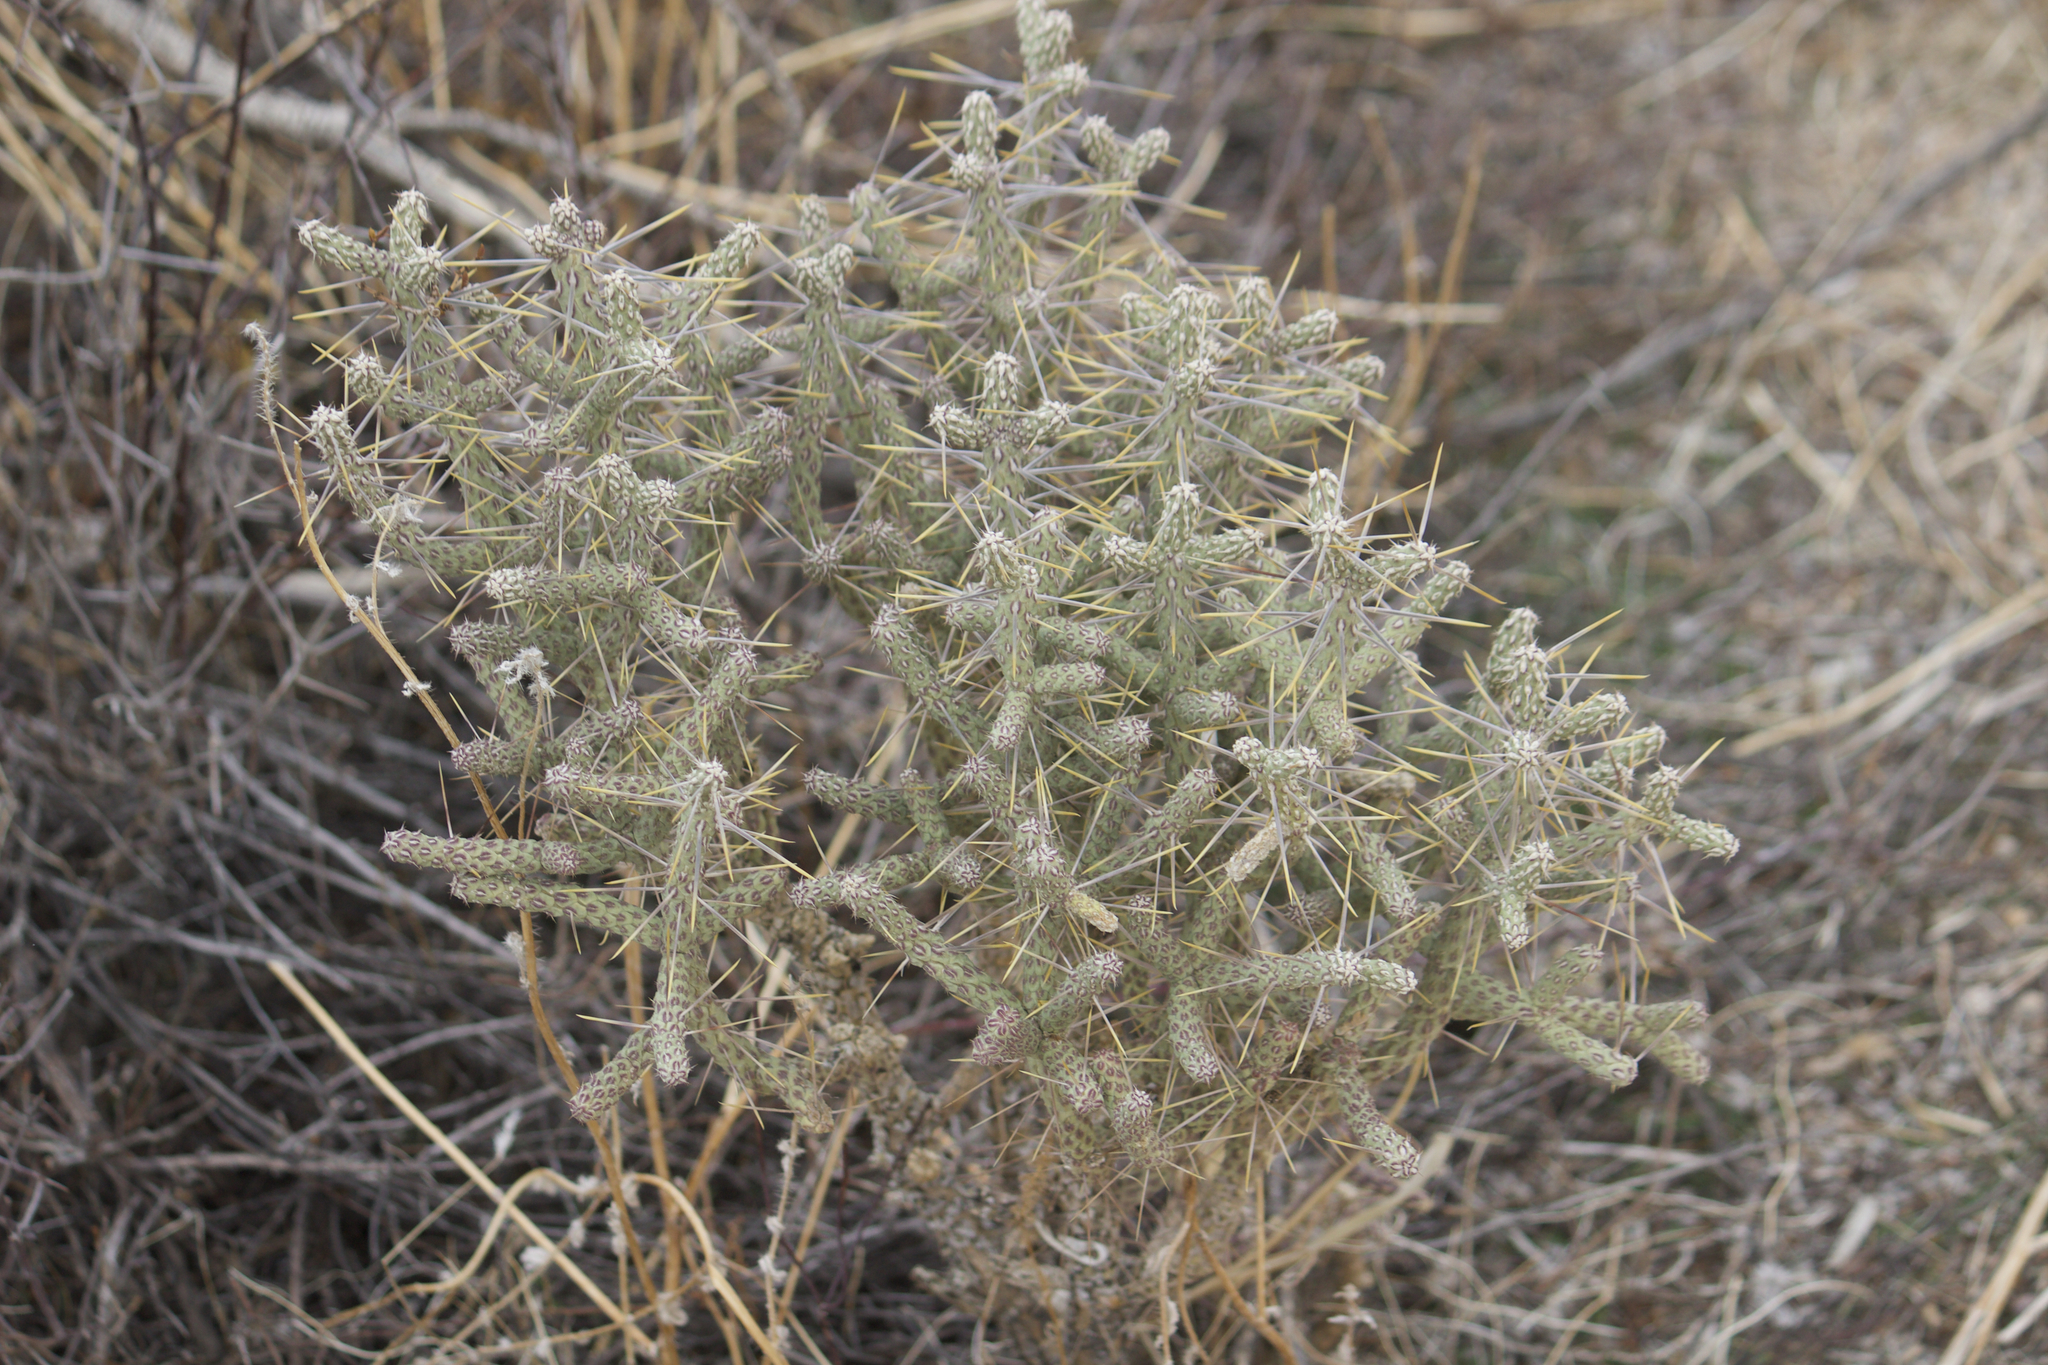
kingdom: Plantae
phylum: Tracheophyta
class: Magnoliopsida
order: Caryophyllales
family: Cactaceae
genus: Cylindropuntia
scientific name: Cylindropuntia ramosissima
